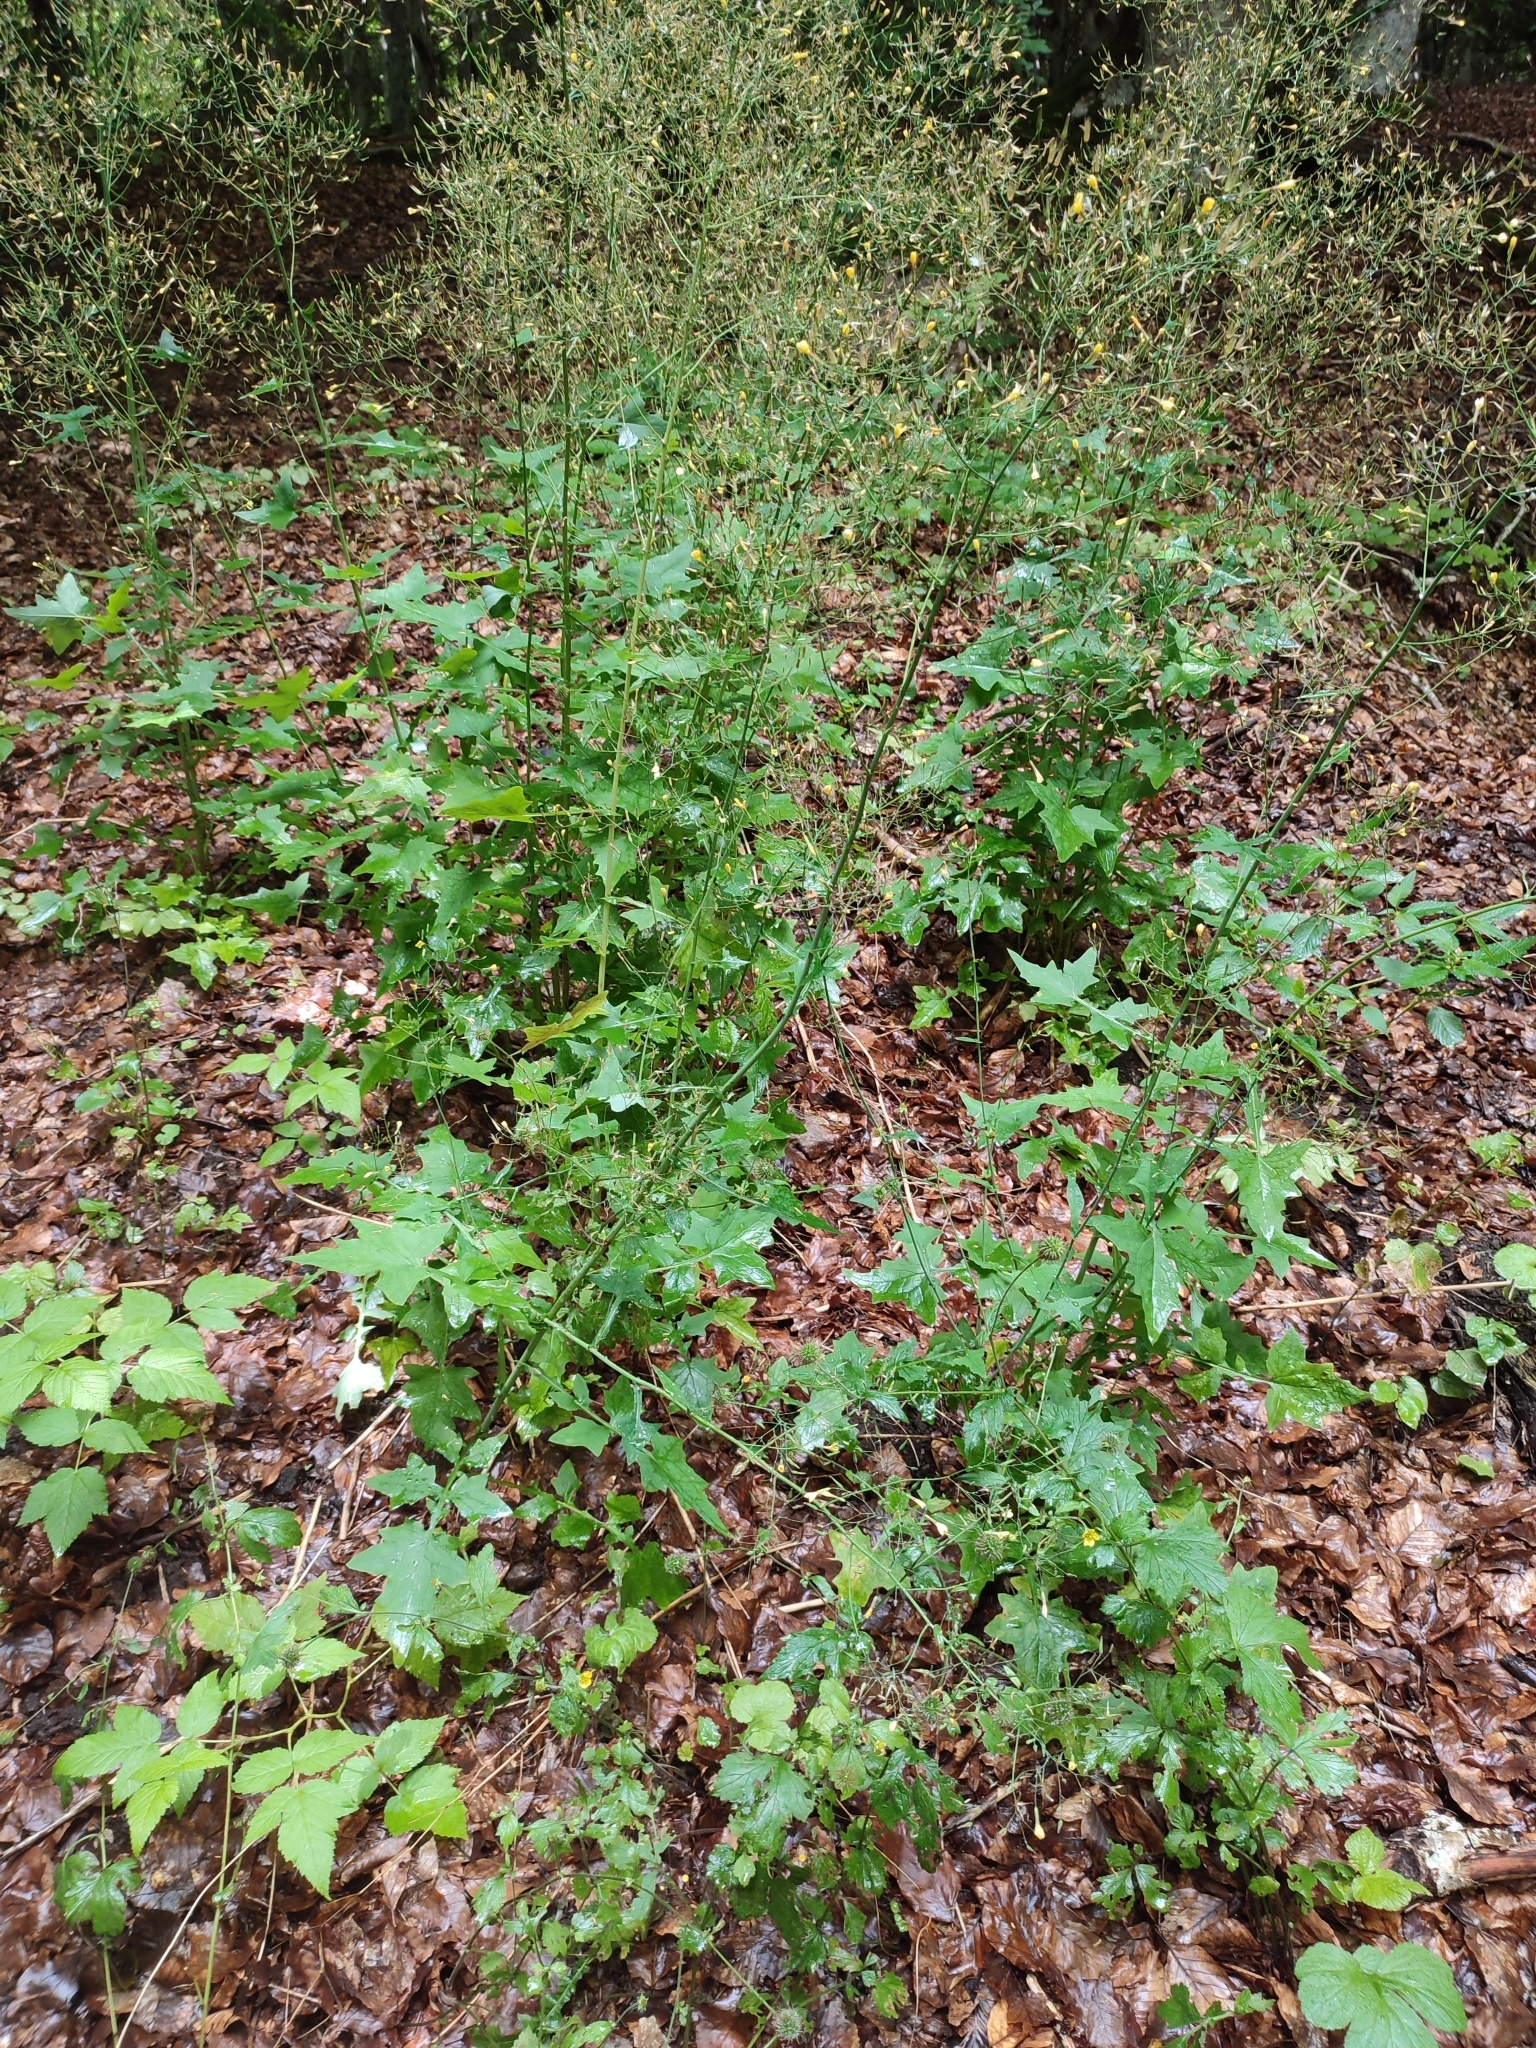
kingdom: Plantae
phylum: Tracheophyta
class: Magnoliopsida
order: Asterales
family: Asteraceae
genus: Mycelis
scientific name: Mycelis muralis
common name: Wall lettuce
